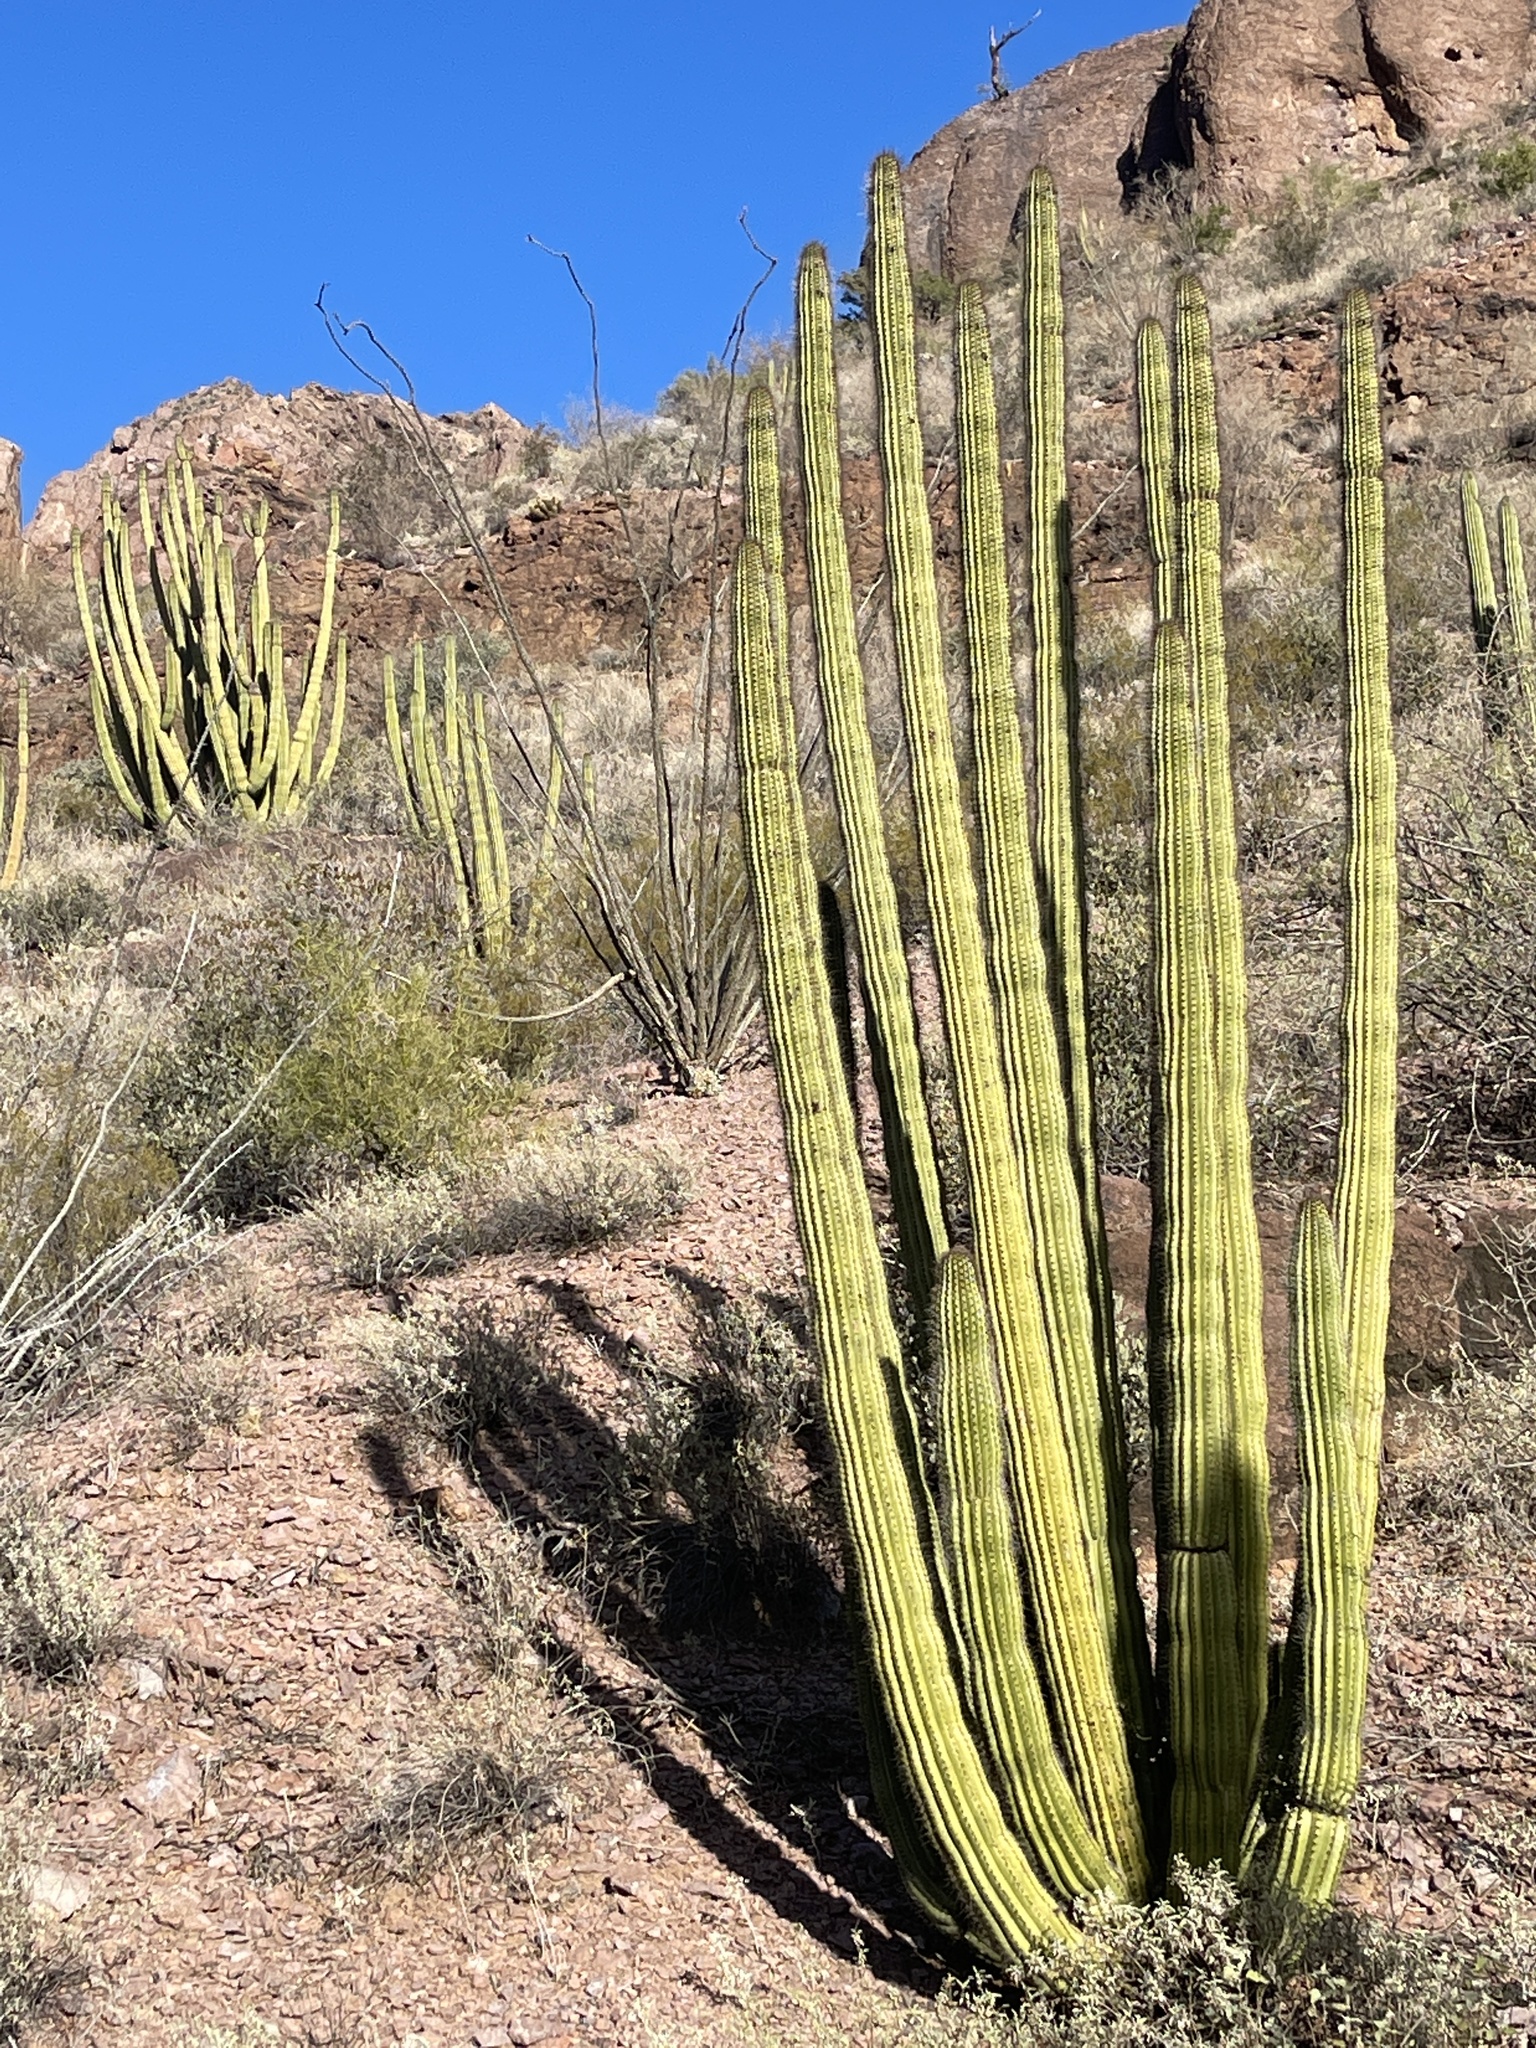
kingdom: Plantae
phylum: Tracheophyta
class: Magnoliopsida
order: Caryophyllales
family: Cactaceae
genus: Stenocereus
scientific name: Stenocereus thurberi
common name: Organ pipe cactus
